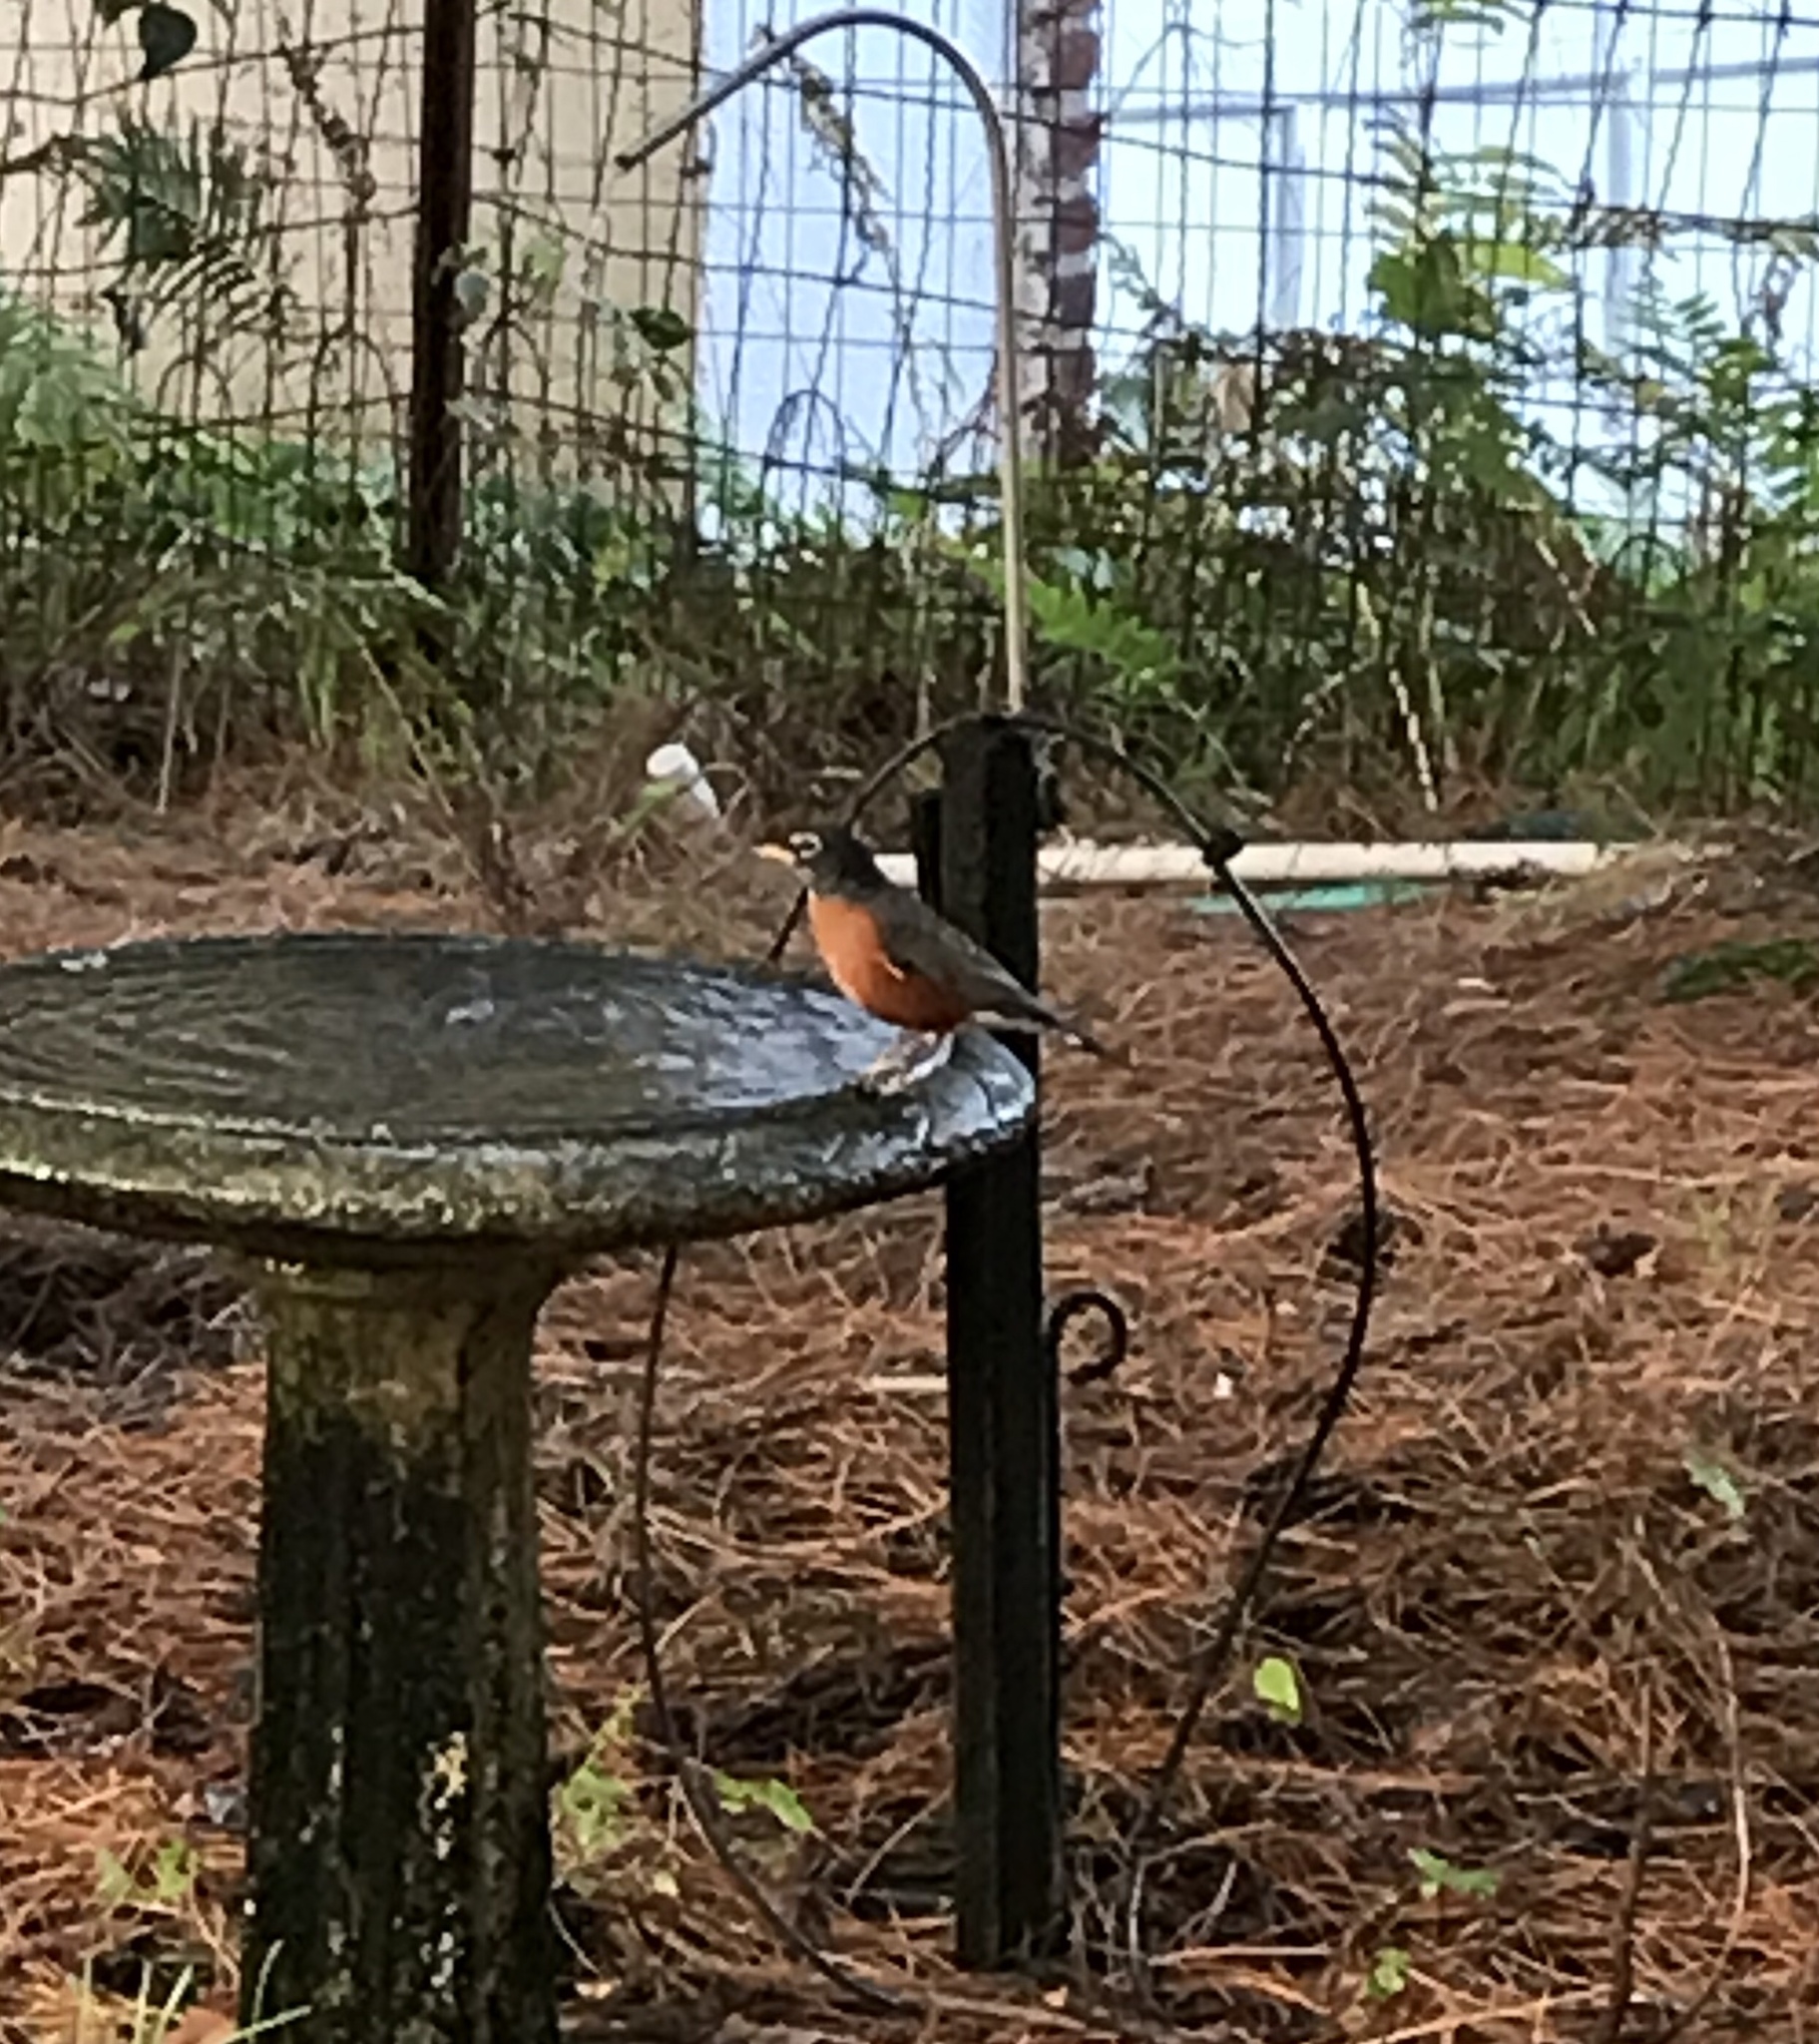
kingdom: Animalia
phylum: Chordata
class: Aves
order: Passeriformes
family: Turdidae
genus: Turdus
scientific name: Turdus migratorius
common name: American robin
